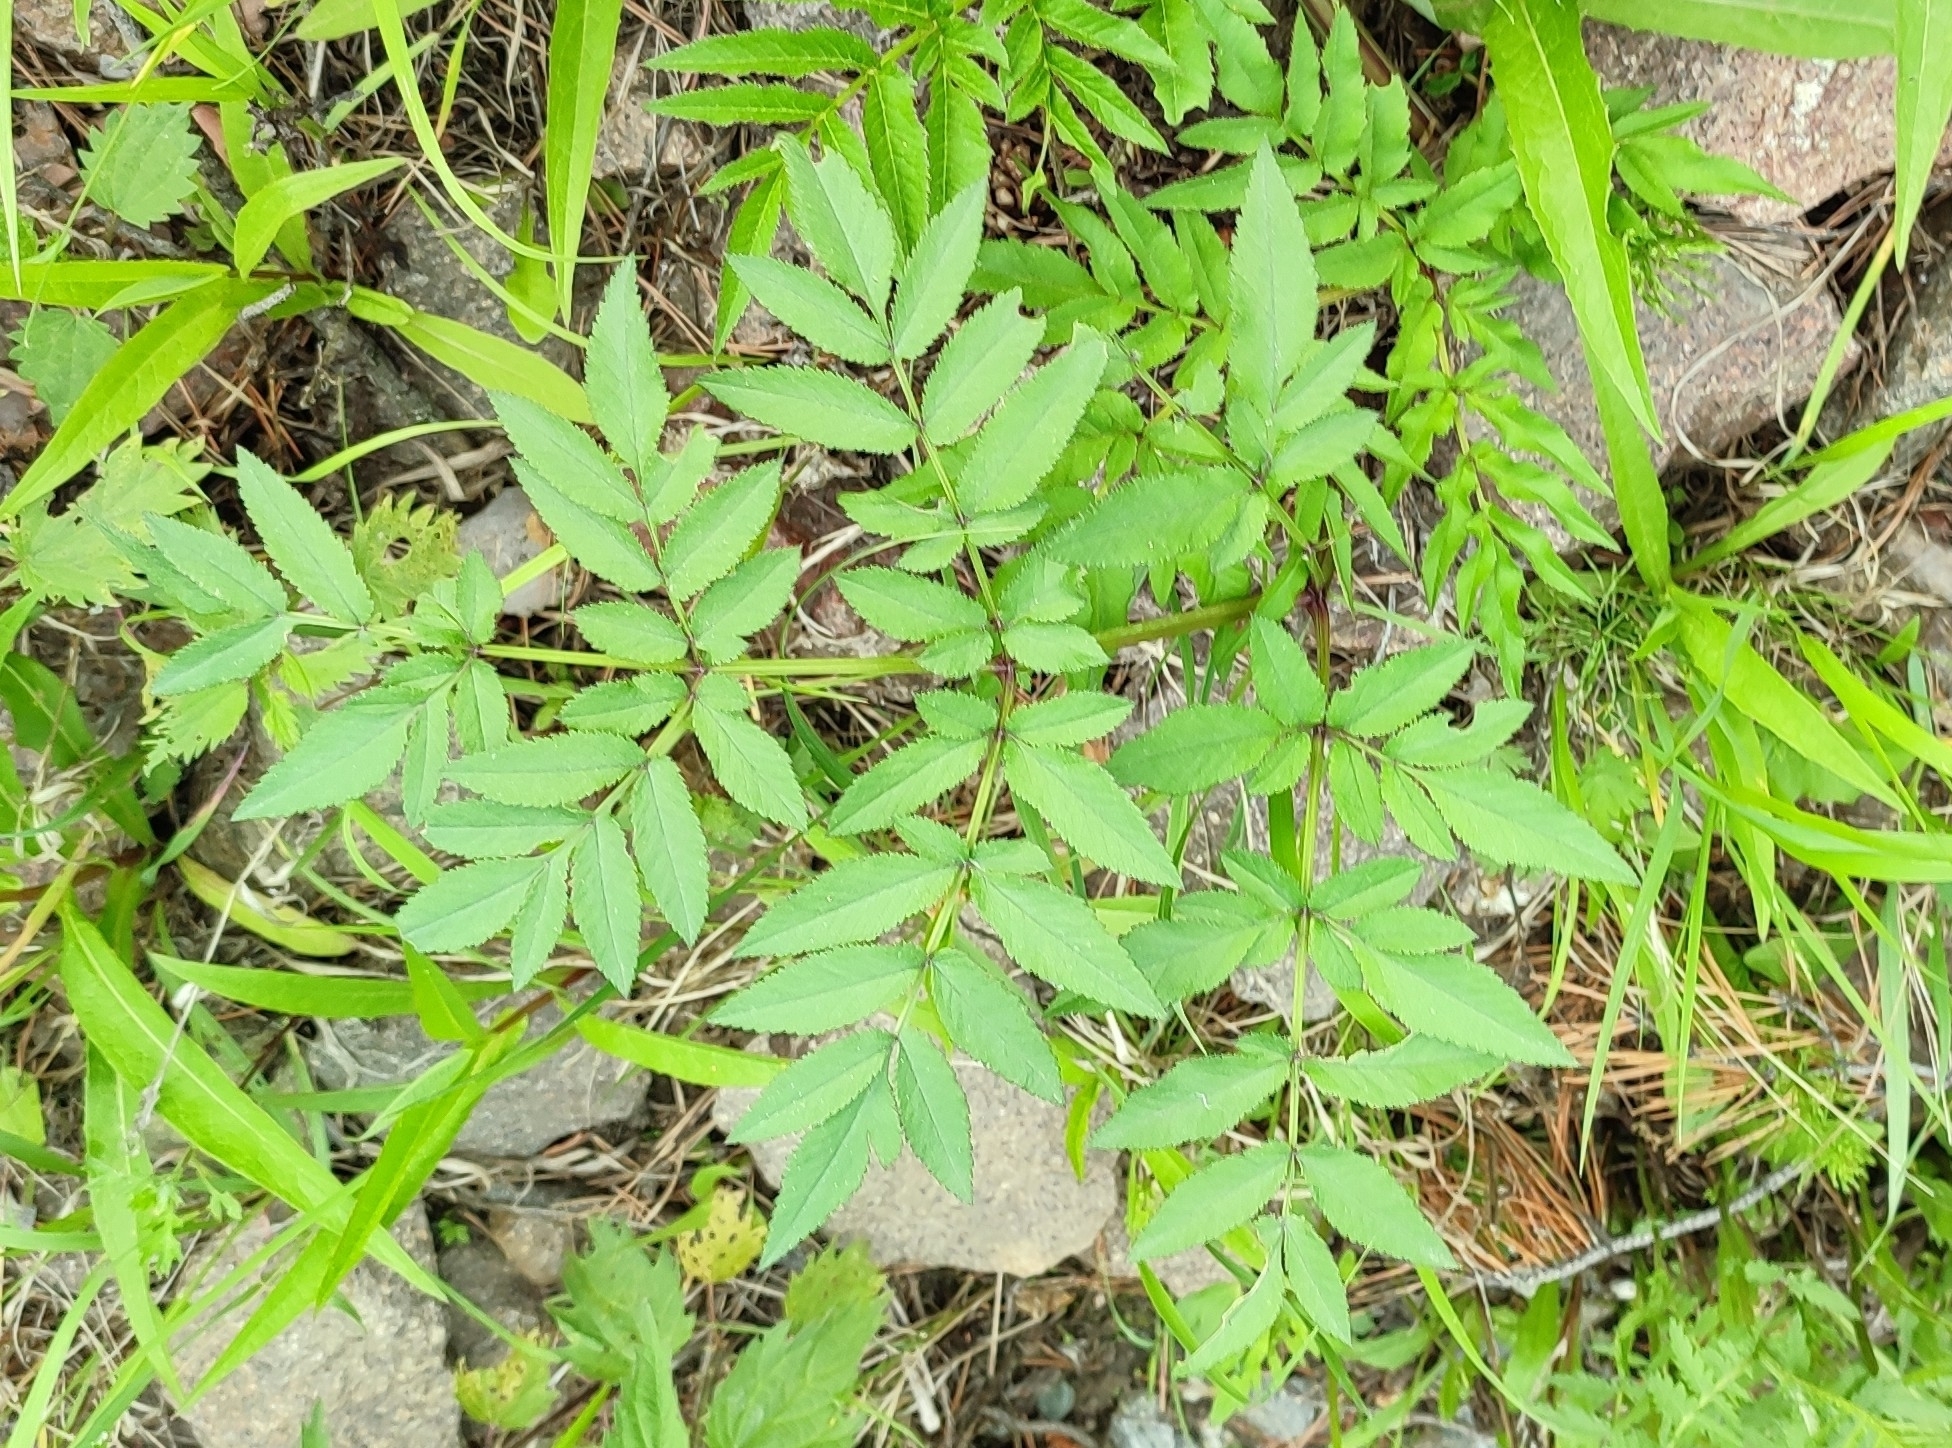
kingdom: Plantae
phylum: Tracheophyta
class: Magnoliopsida
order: Apiales
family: Apiaceae
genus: Angelica
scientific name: Angelica sylvestris
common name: Wild angelica
